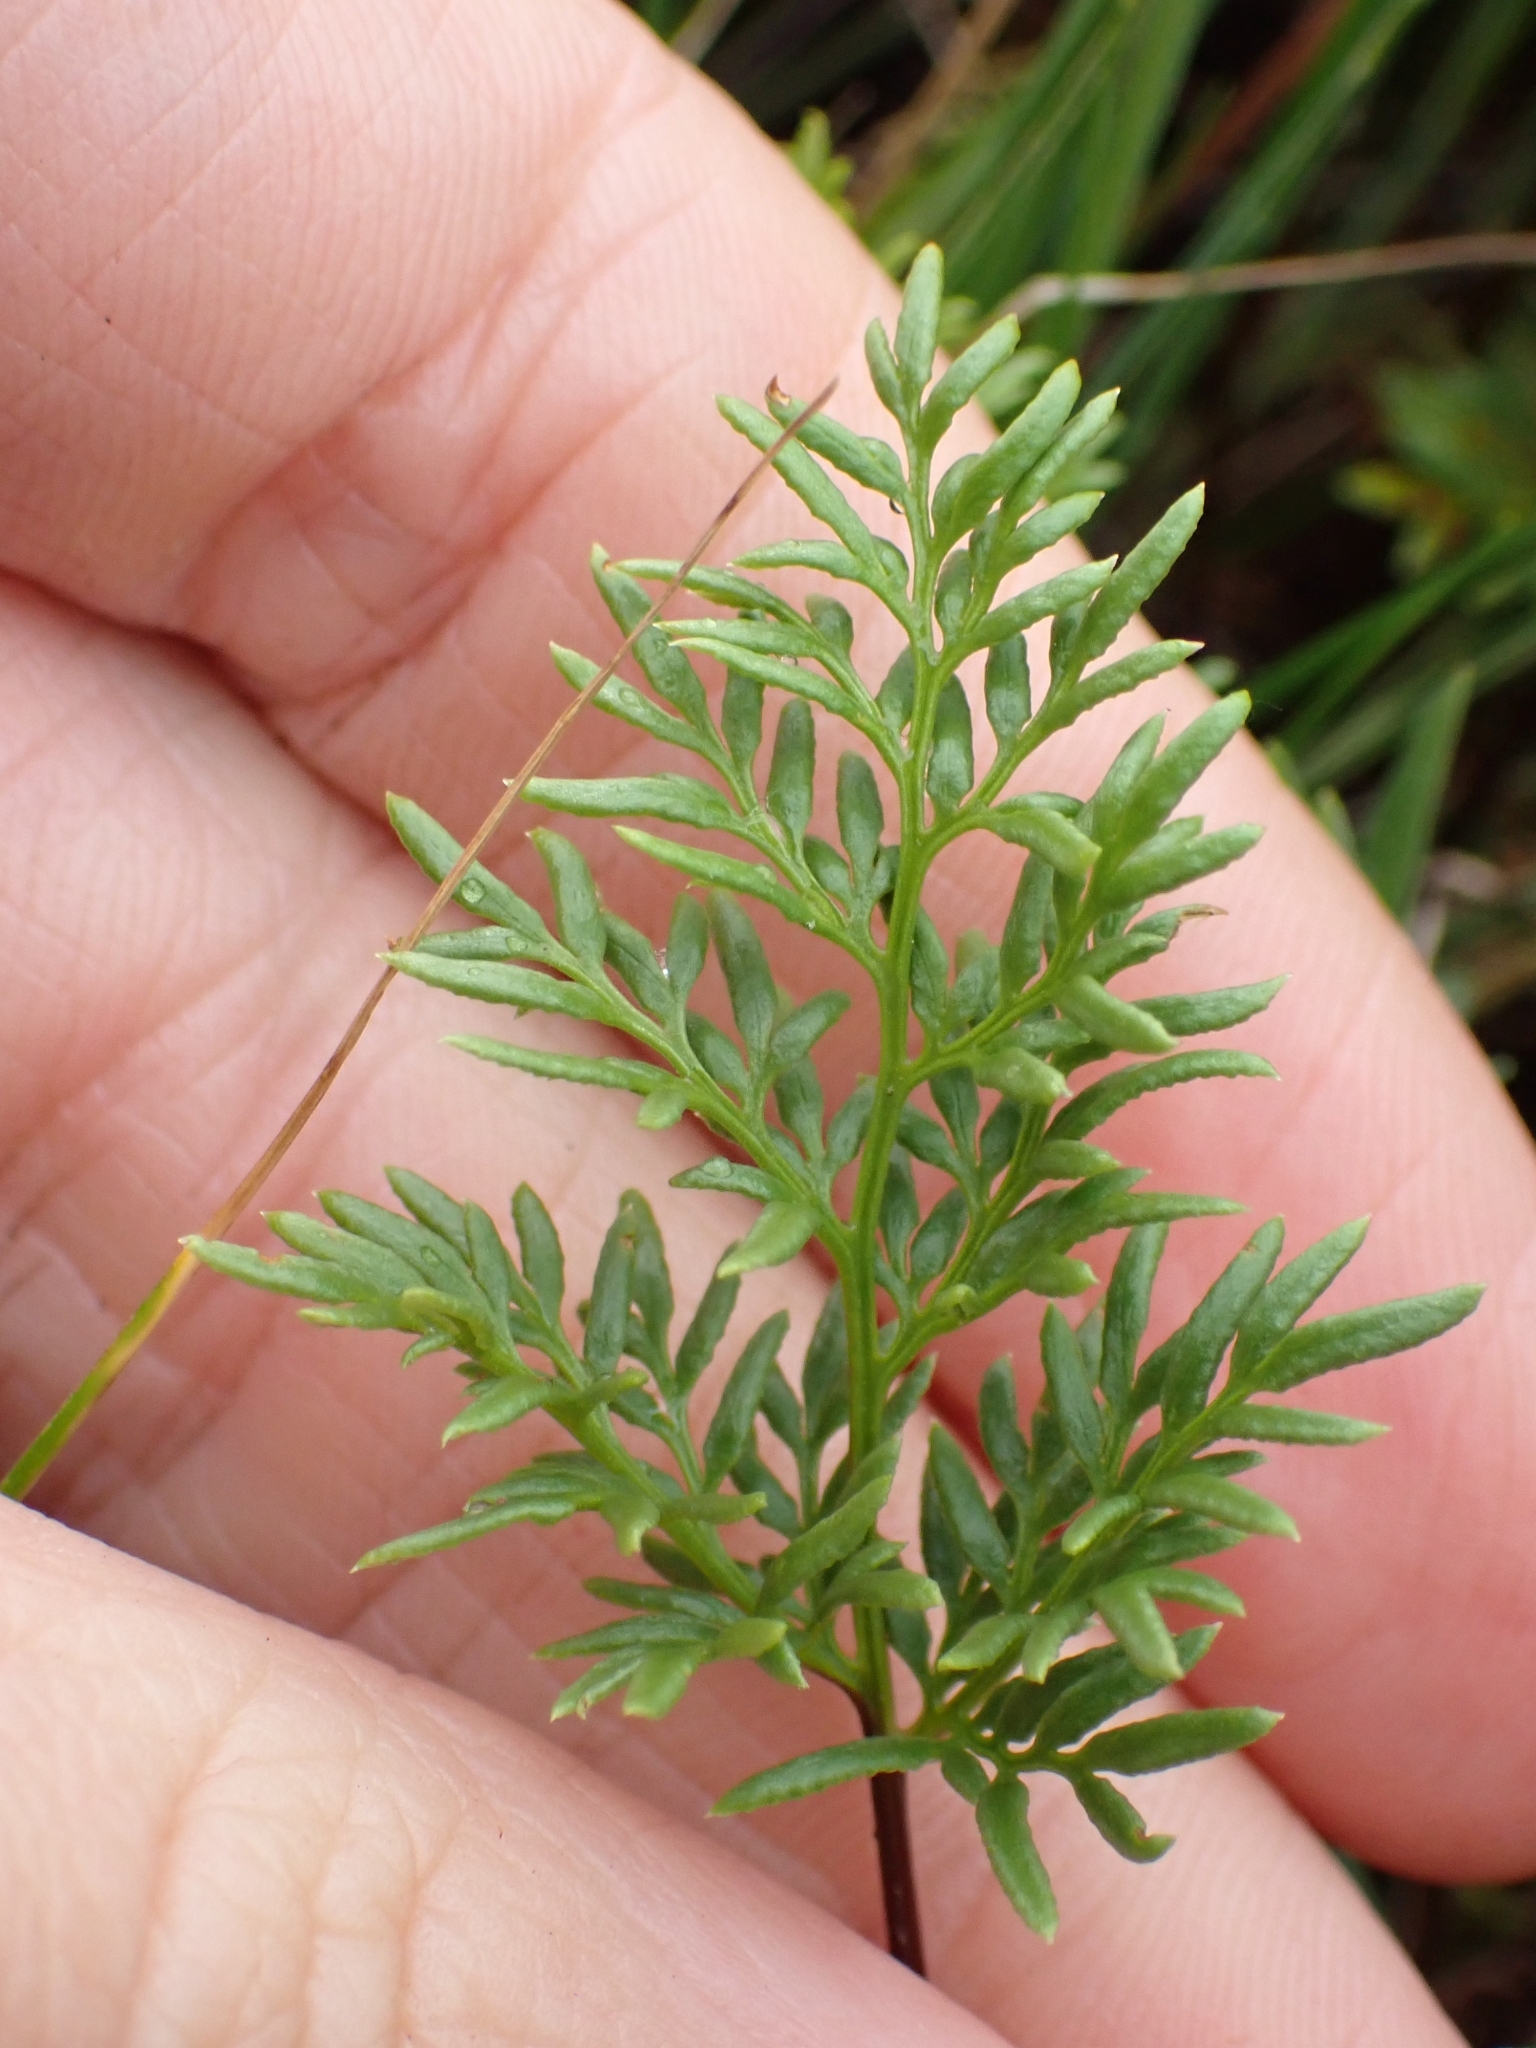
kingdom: Plantae
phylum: Tracheophyta
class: Polypodiopsida
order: Polypodiales
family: Pteridaceae
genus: Aspidotis
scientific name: Aspidotis densa
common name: Indian's dream
